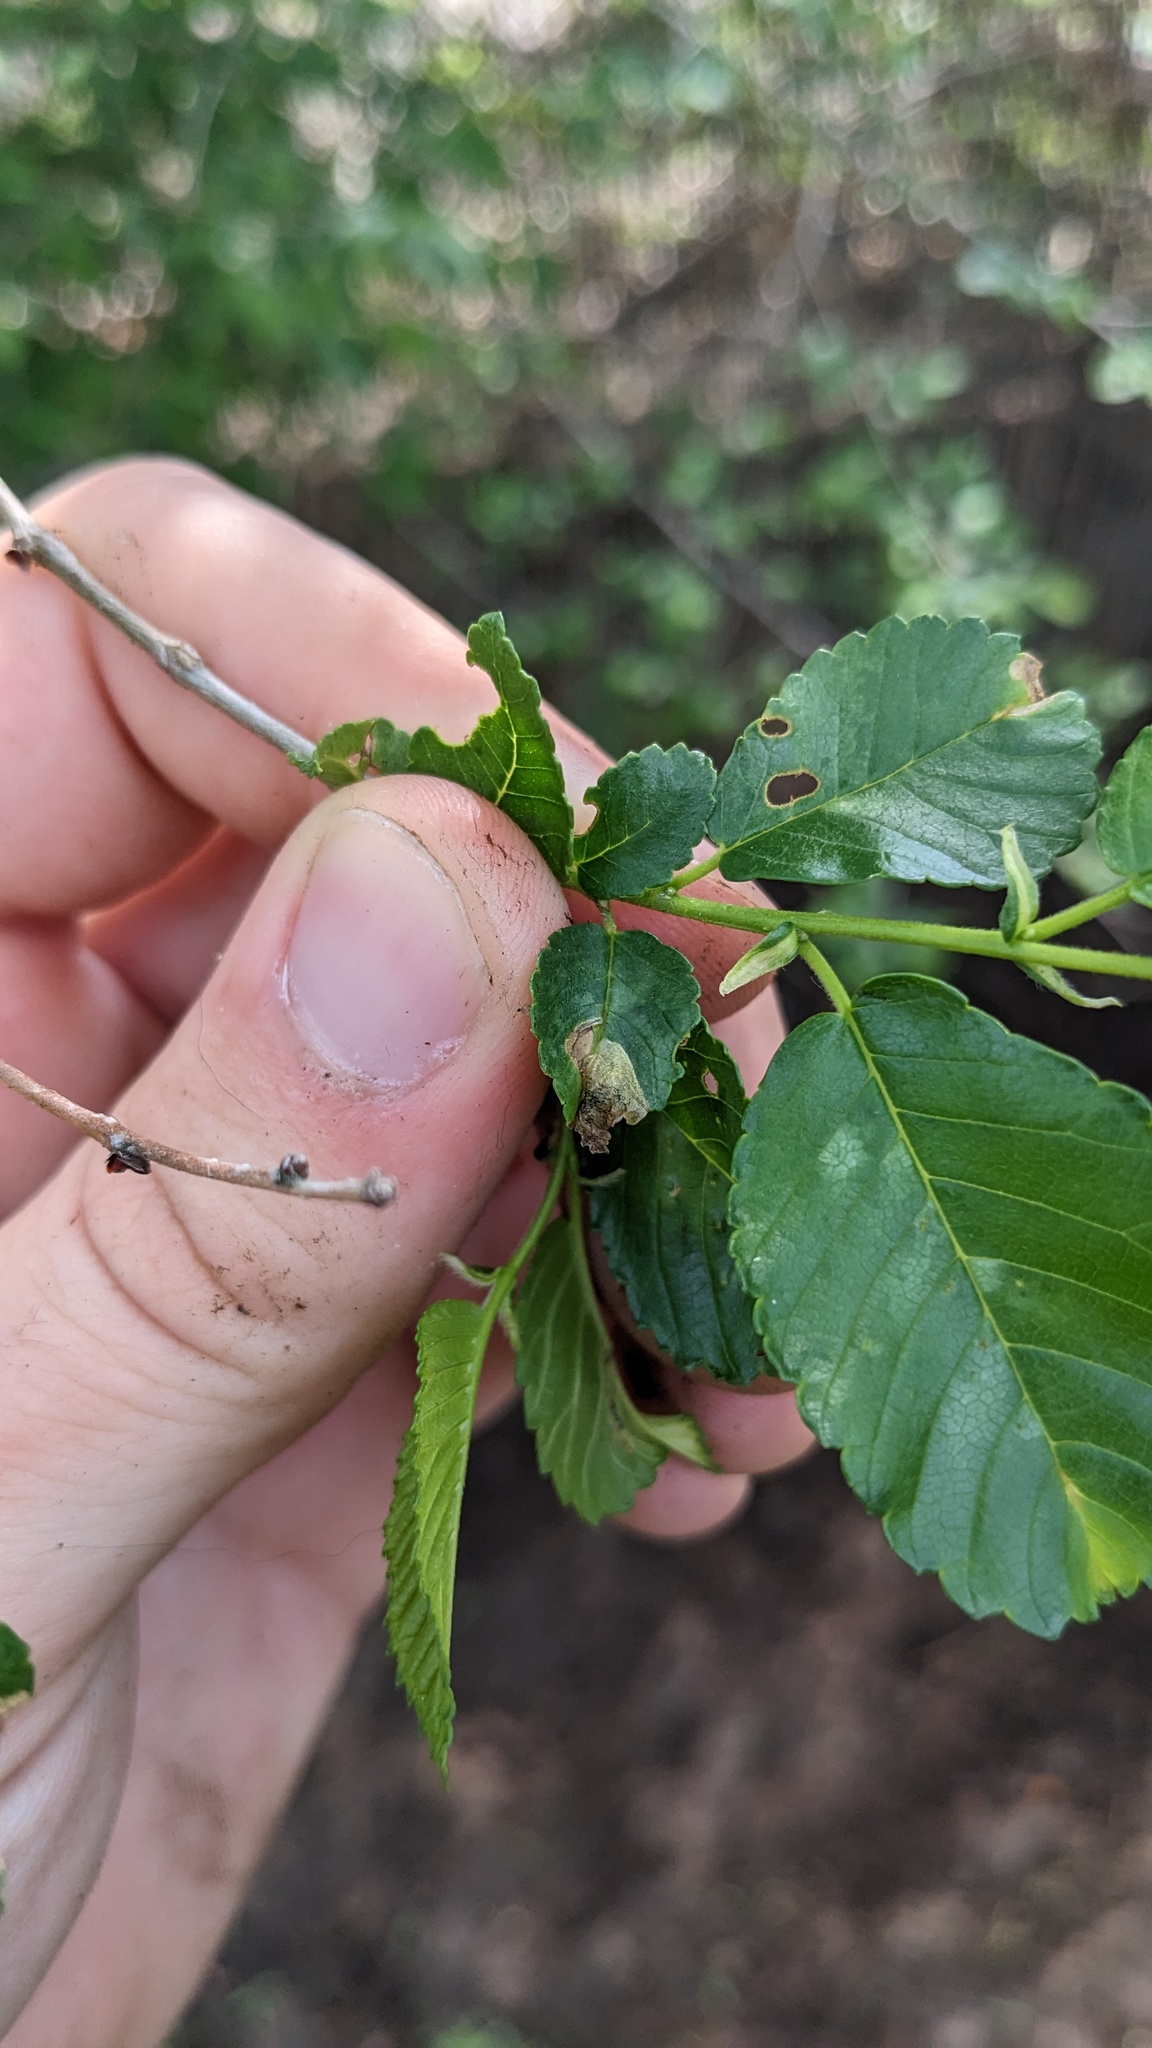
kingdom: Animalia
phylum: Arthropoda
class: Insecta
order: Coleoptera
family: Curculionidae
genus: Orchestes
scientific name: Orchestes steppensis
